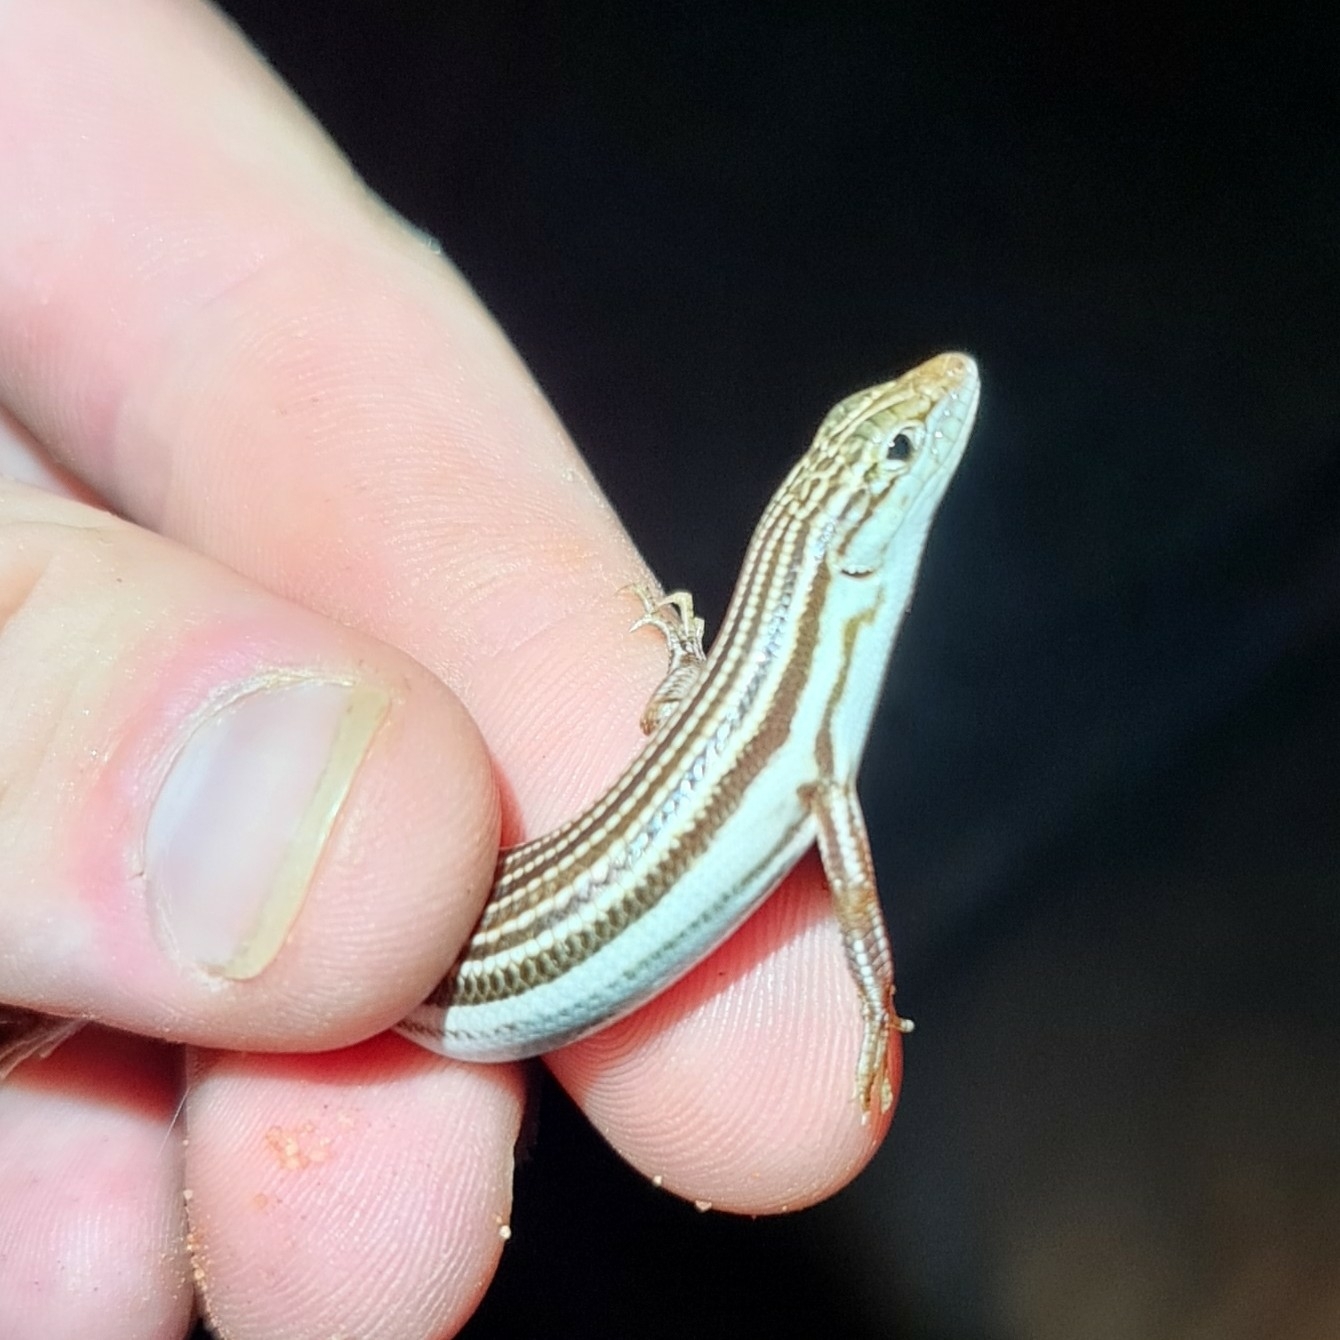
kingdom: Animalia
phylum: Chordata
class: Squamata
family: Scincidae
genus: Ctenotus
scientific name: Ctenotus leae
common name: Orange-tailed finesnout ctenotus
